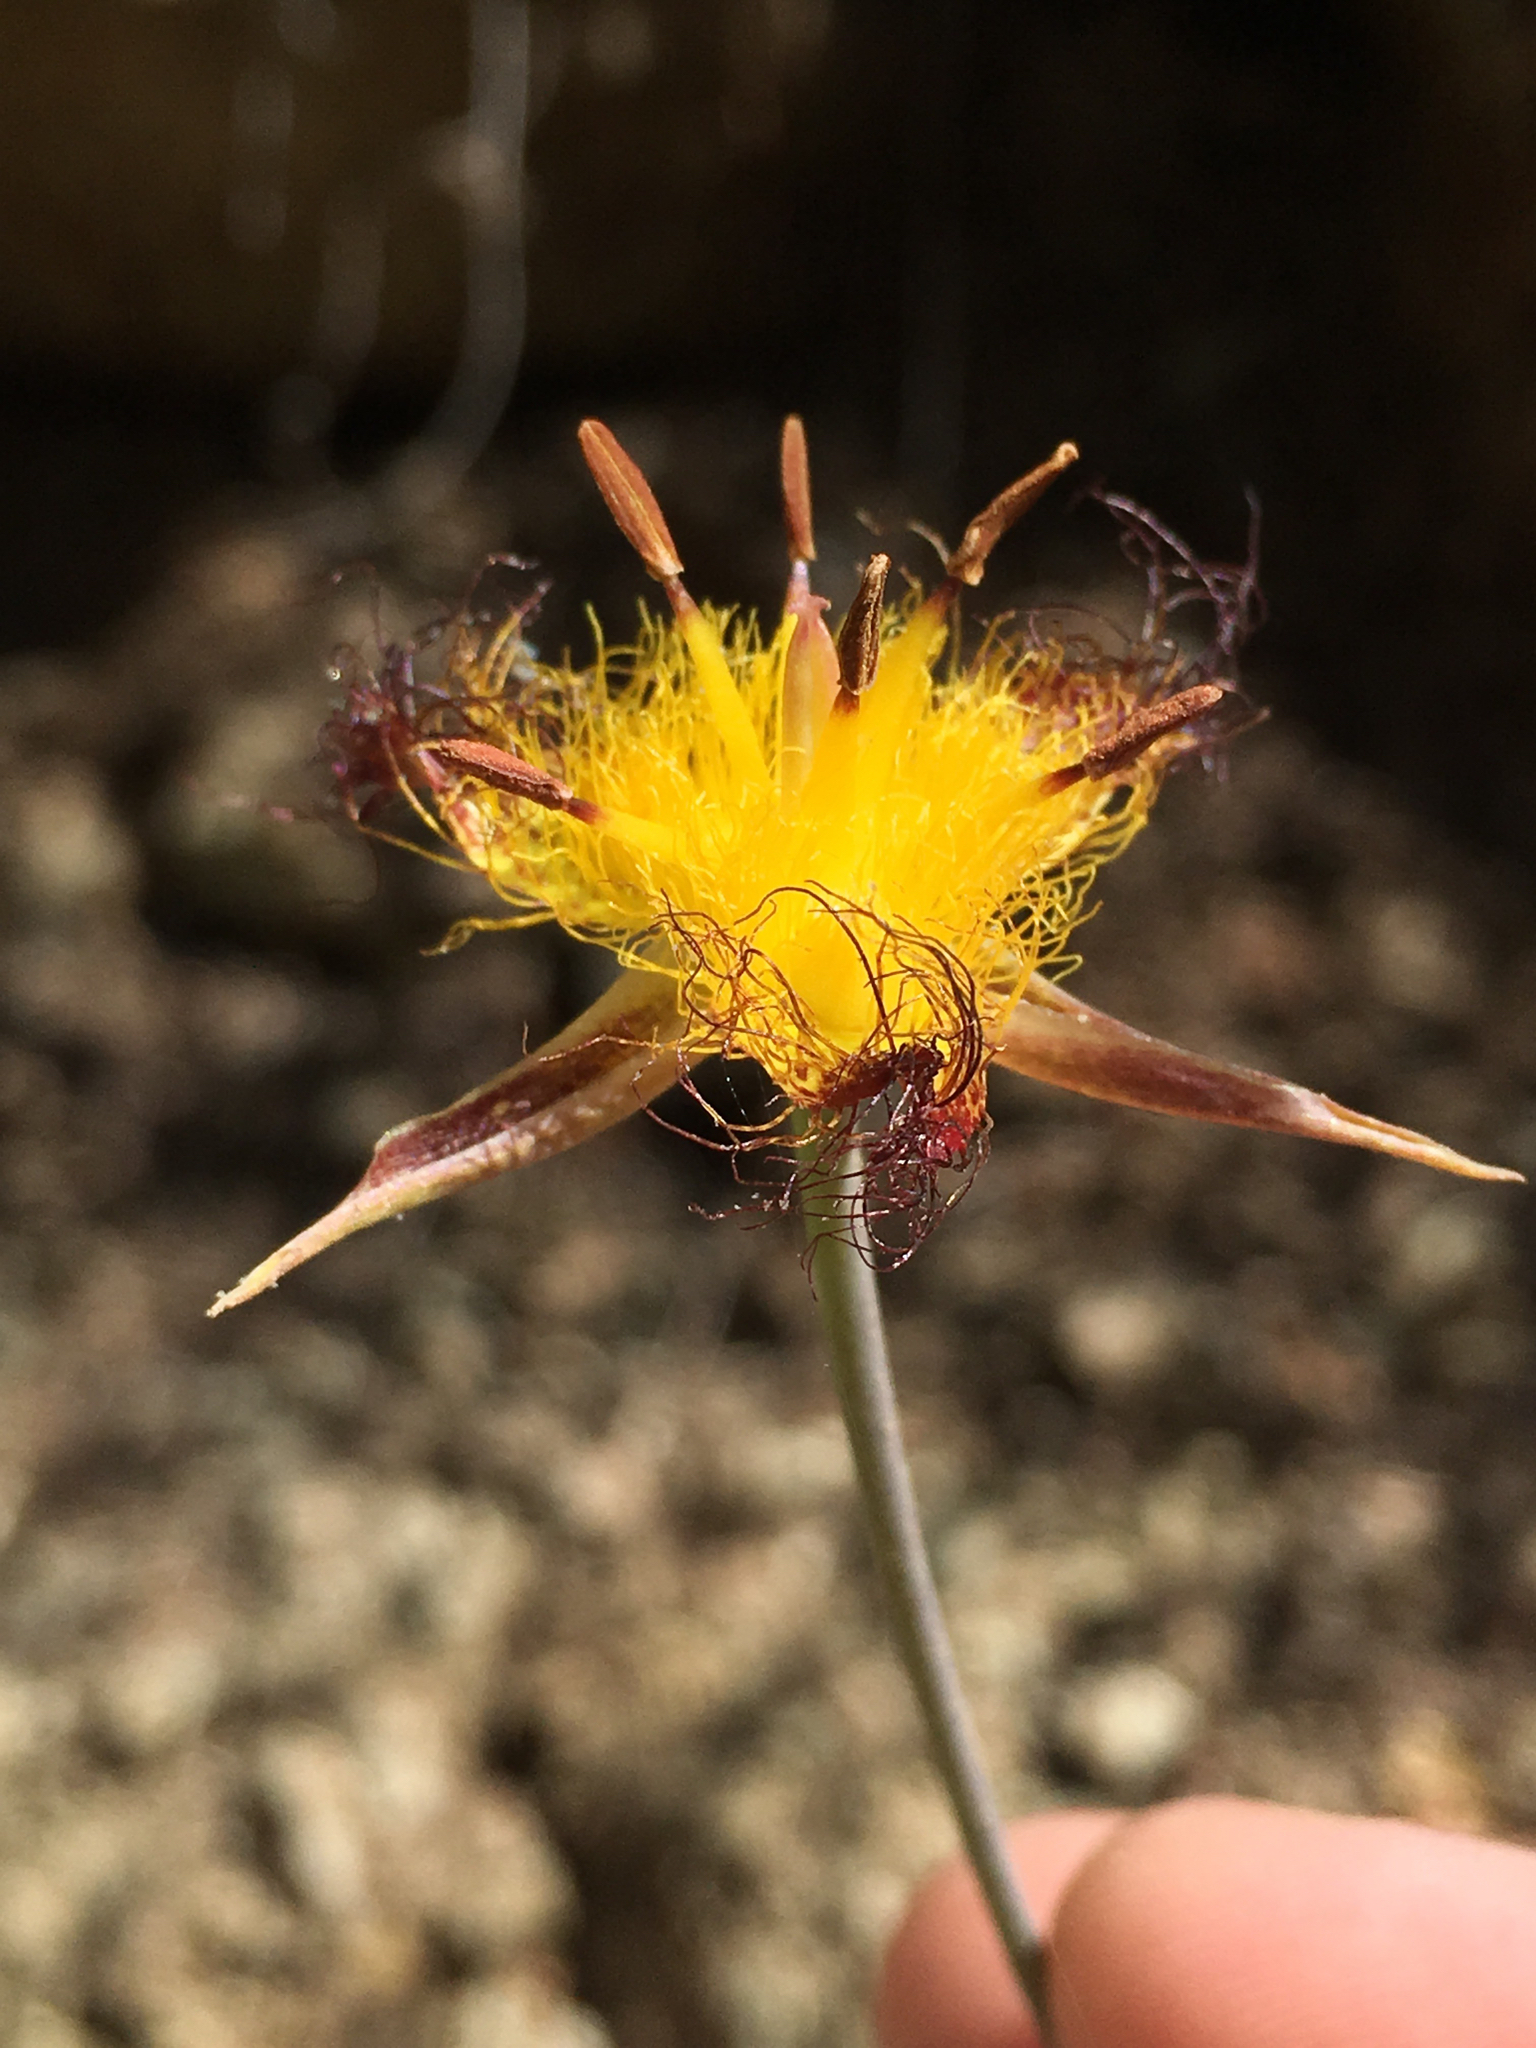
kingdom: Plantae
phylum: Tracheophyta
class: Liliopsida
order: Liliales
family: Liliaceae
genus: Calochortus
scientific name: Calochortus obispoensis
